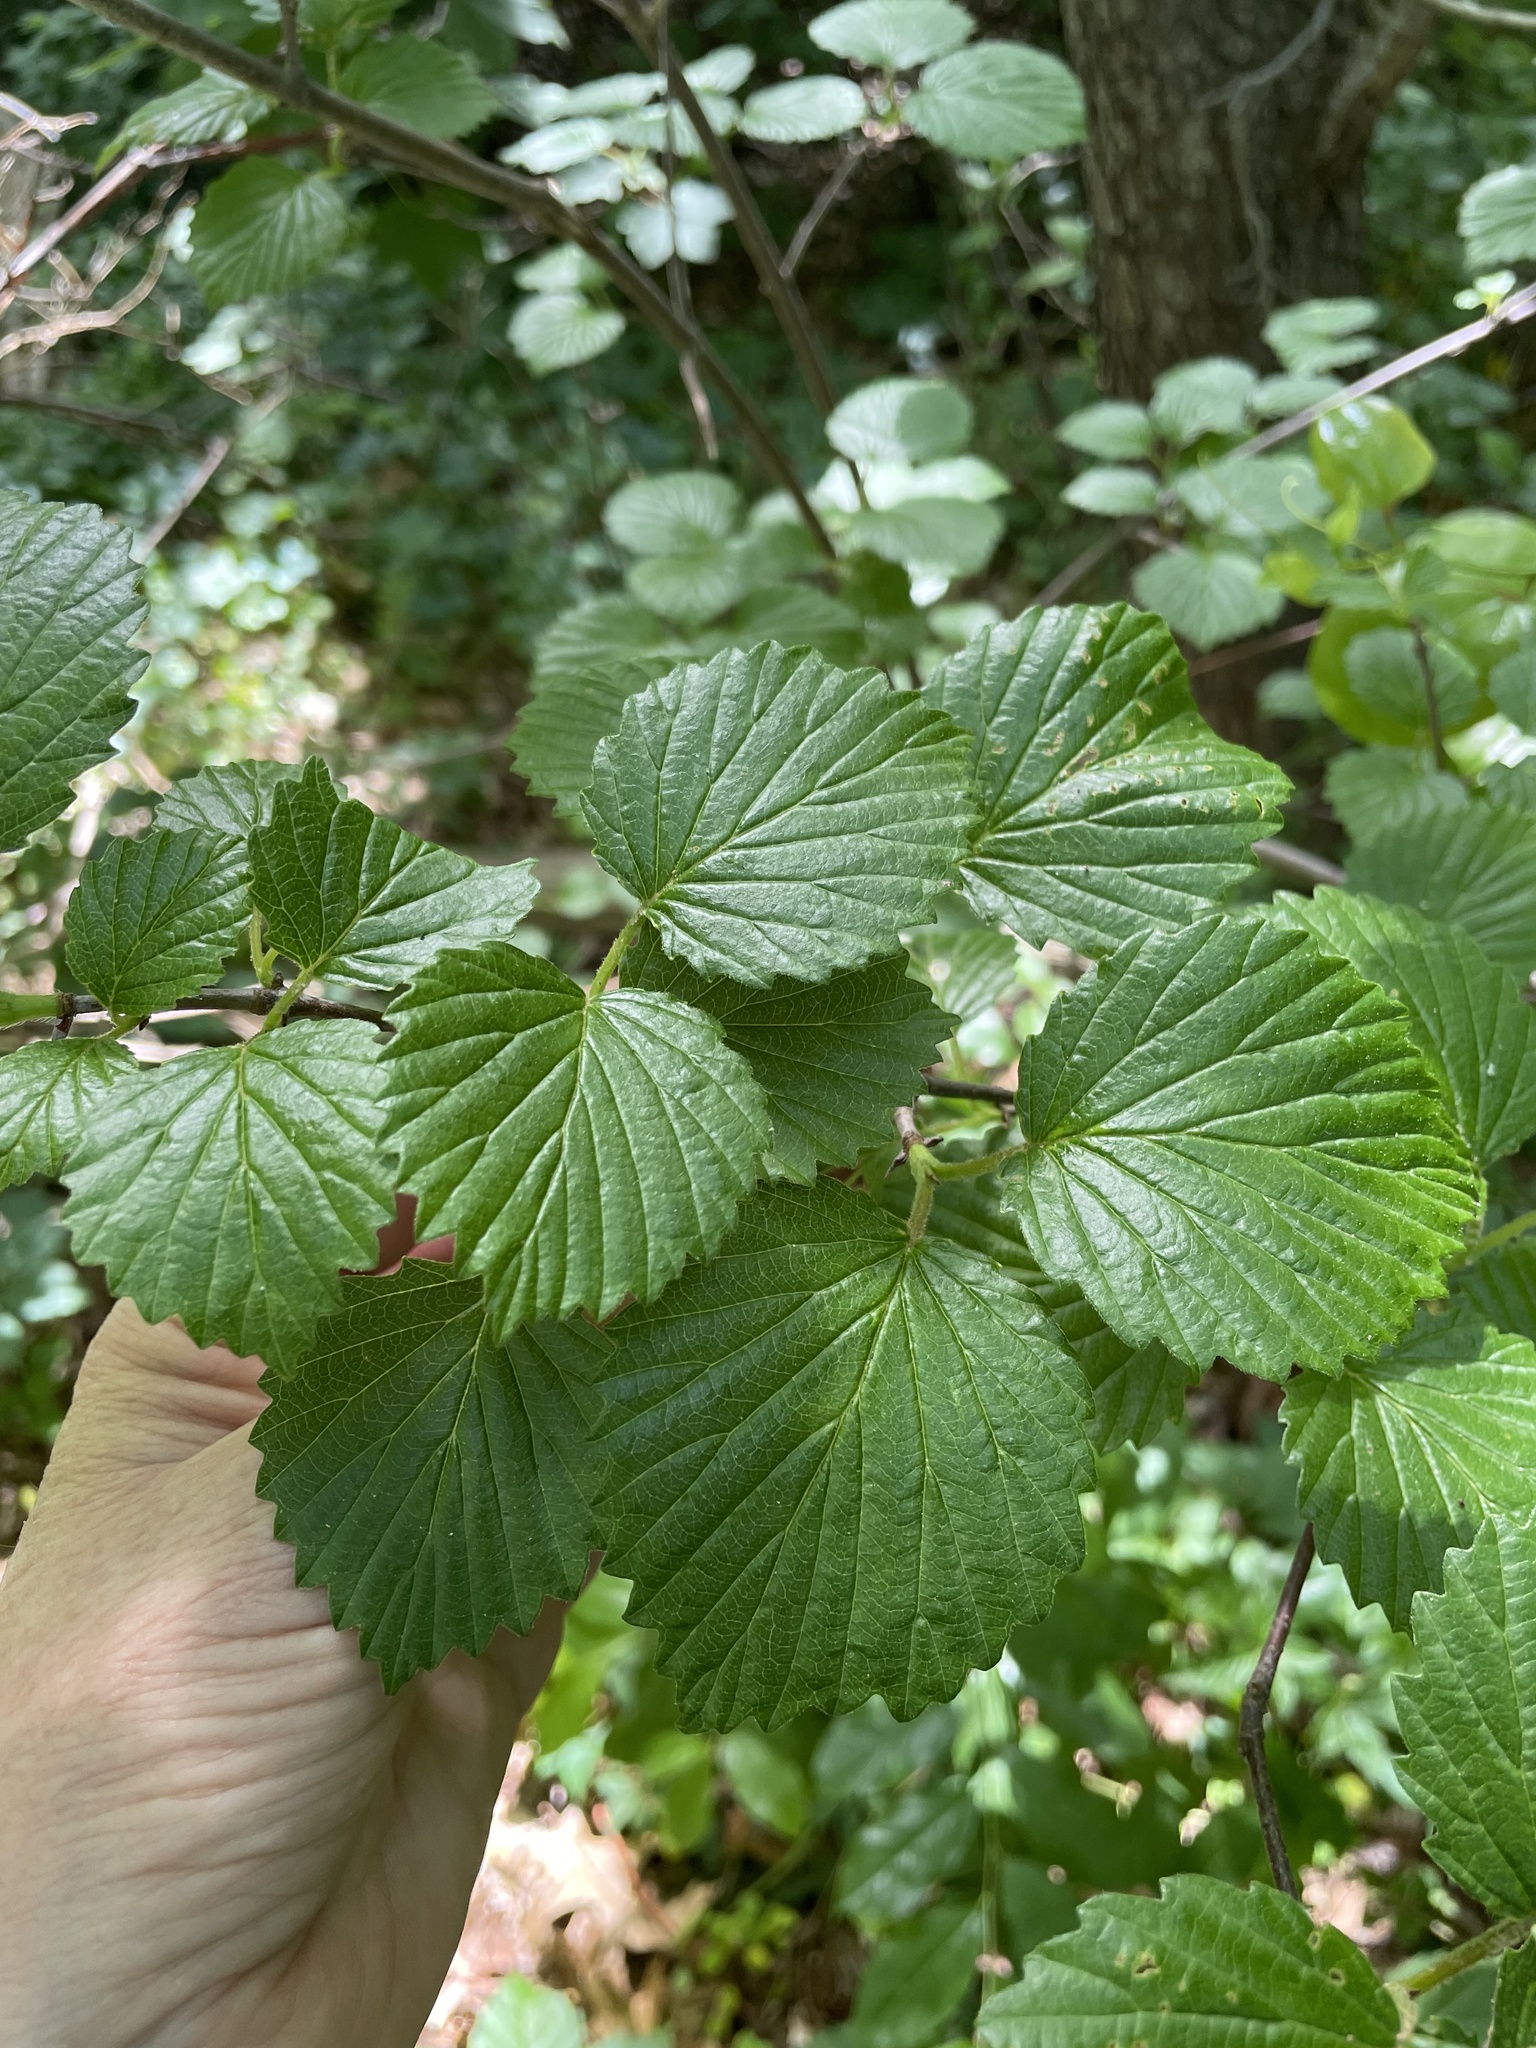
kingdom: Plantae
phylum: Tracheophyta
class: Magnoliopsida
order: Dipsacales
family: Viburnaceae
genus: Viburnum
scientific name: Viburnum dentatum
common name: Arrow-wood
